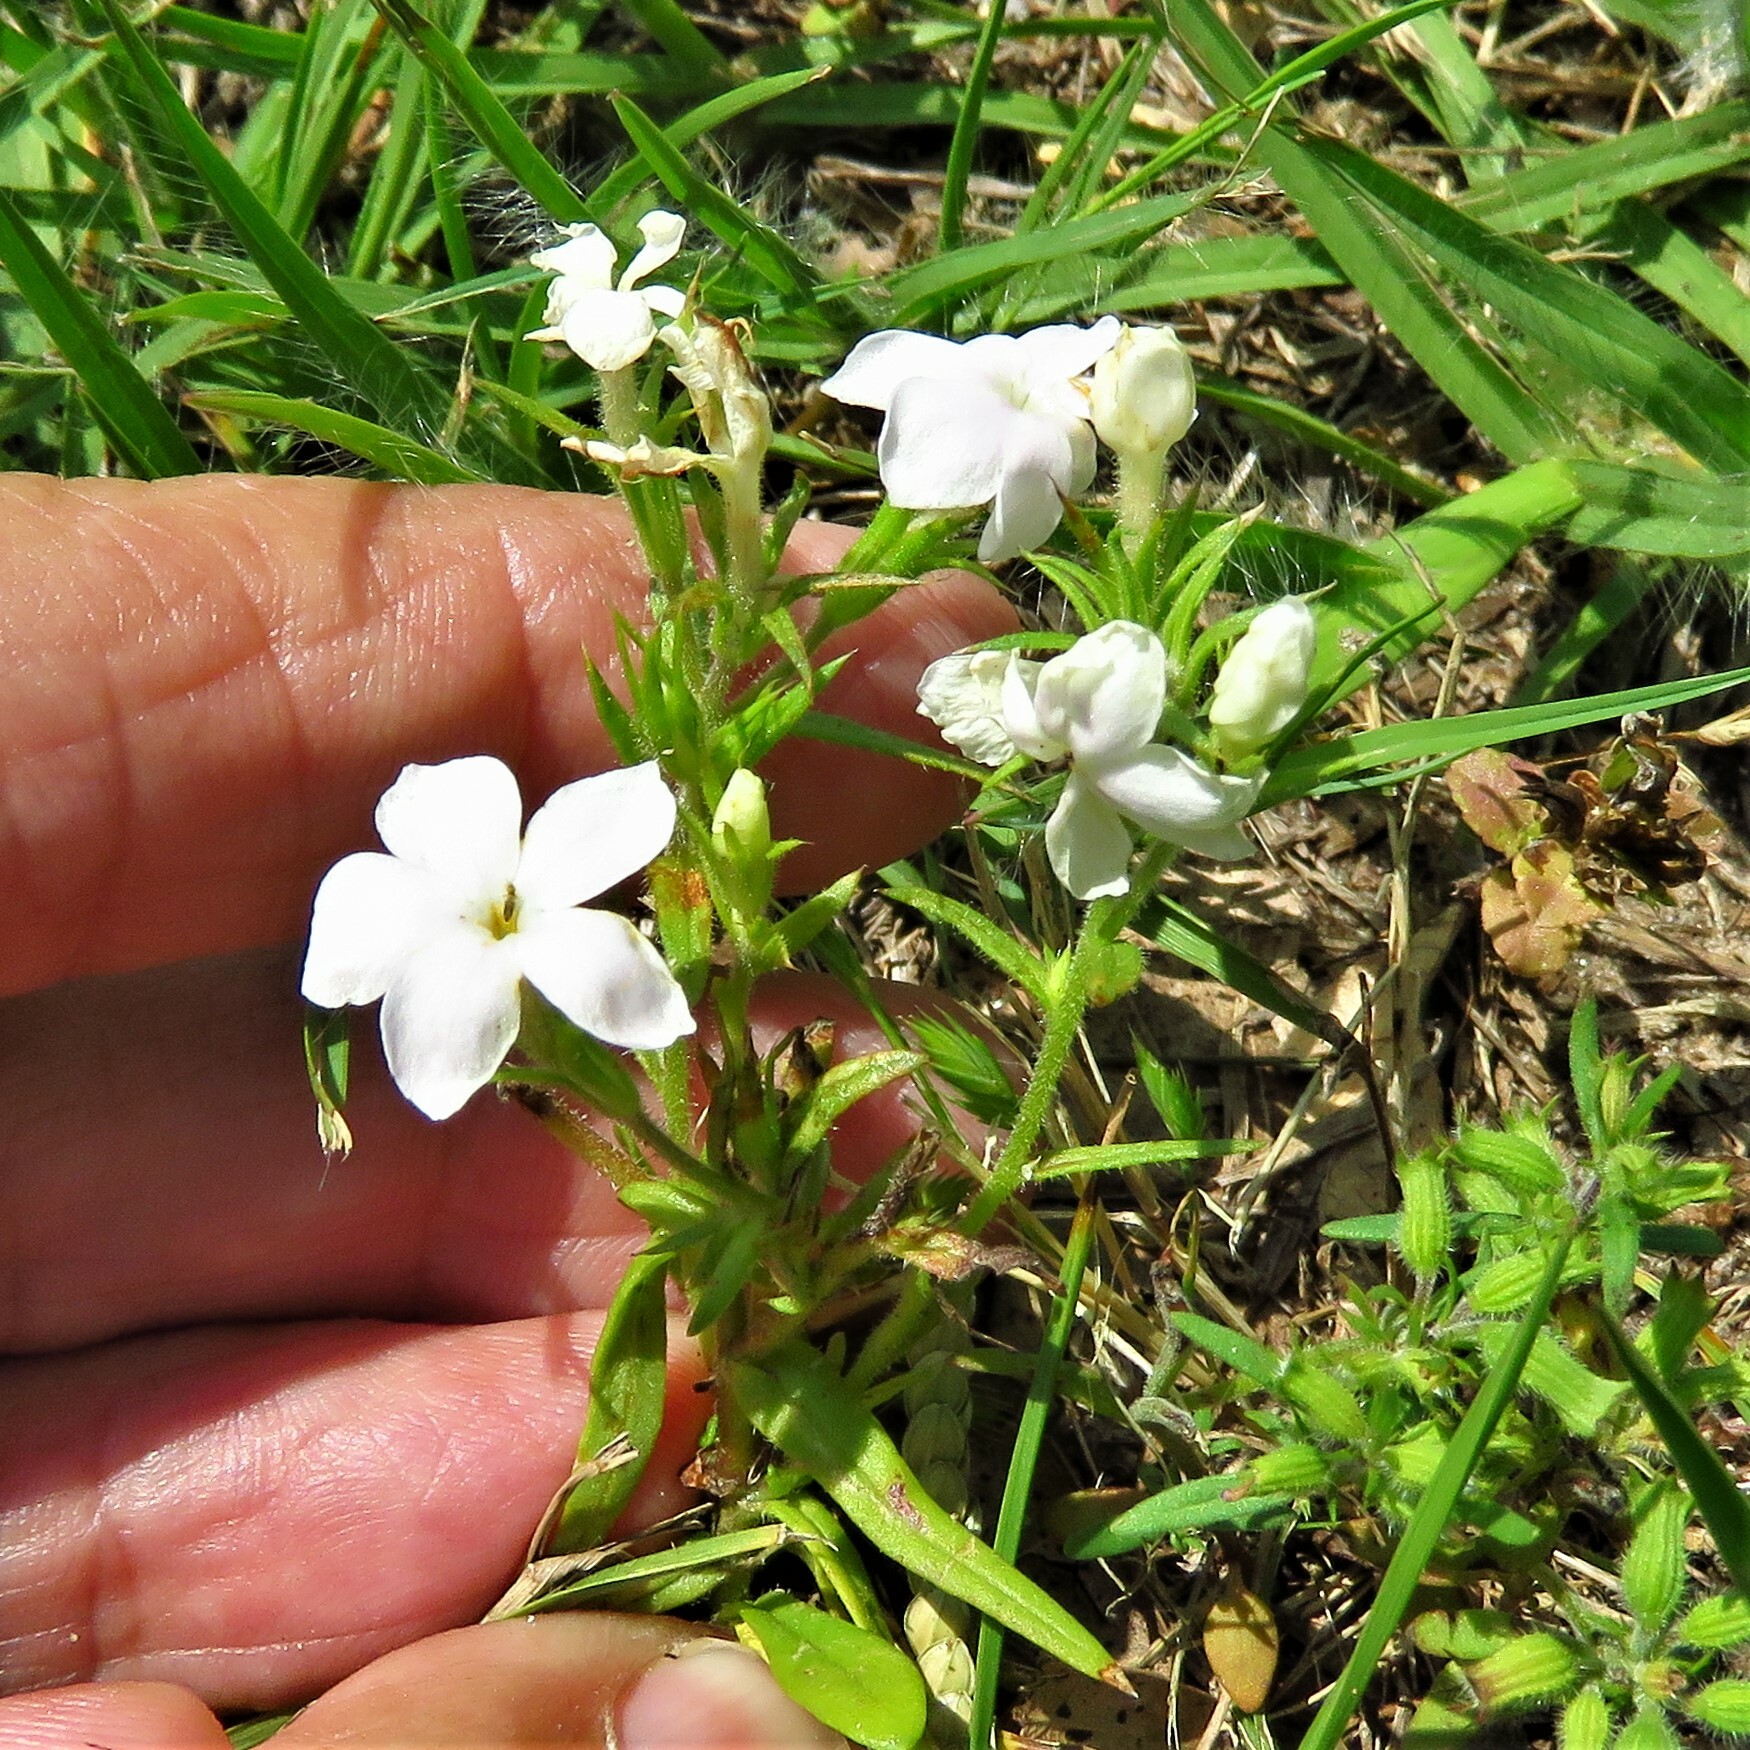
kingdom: Plantae
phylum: Tracheophyta
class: Magnoliopsida
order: Ericales
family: Polemoniaceae
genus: Phlox
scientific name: Phlox cuspidata
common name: Pointed phlox
